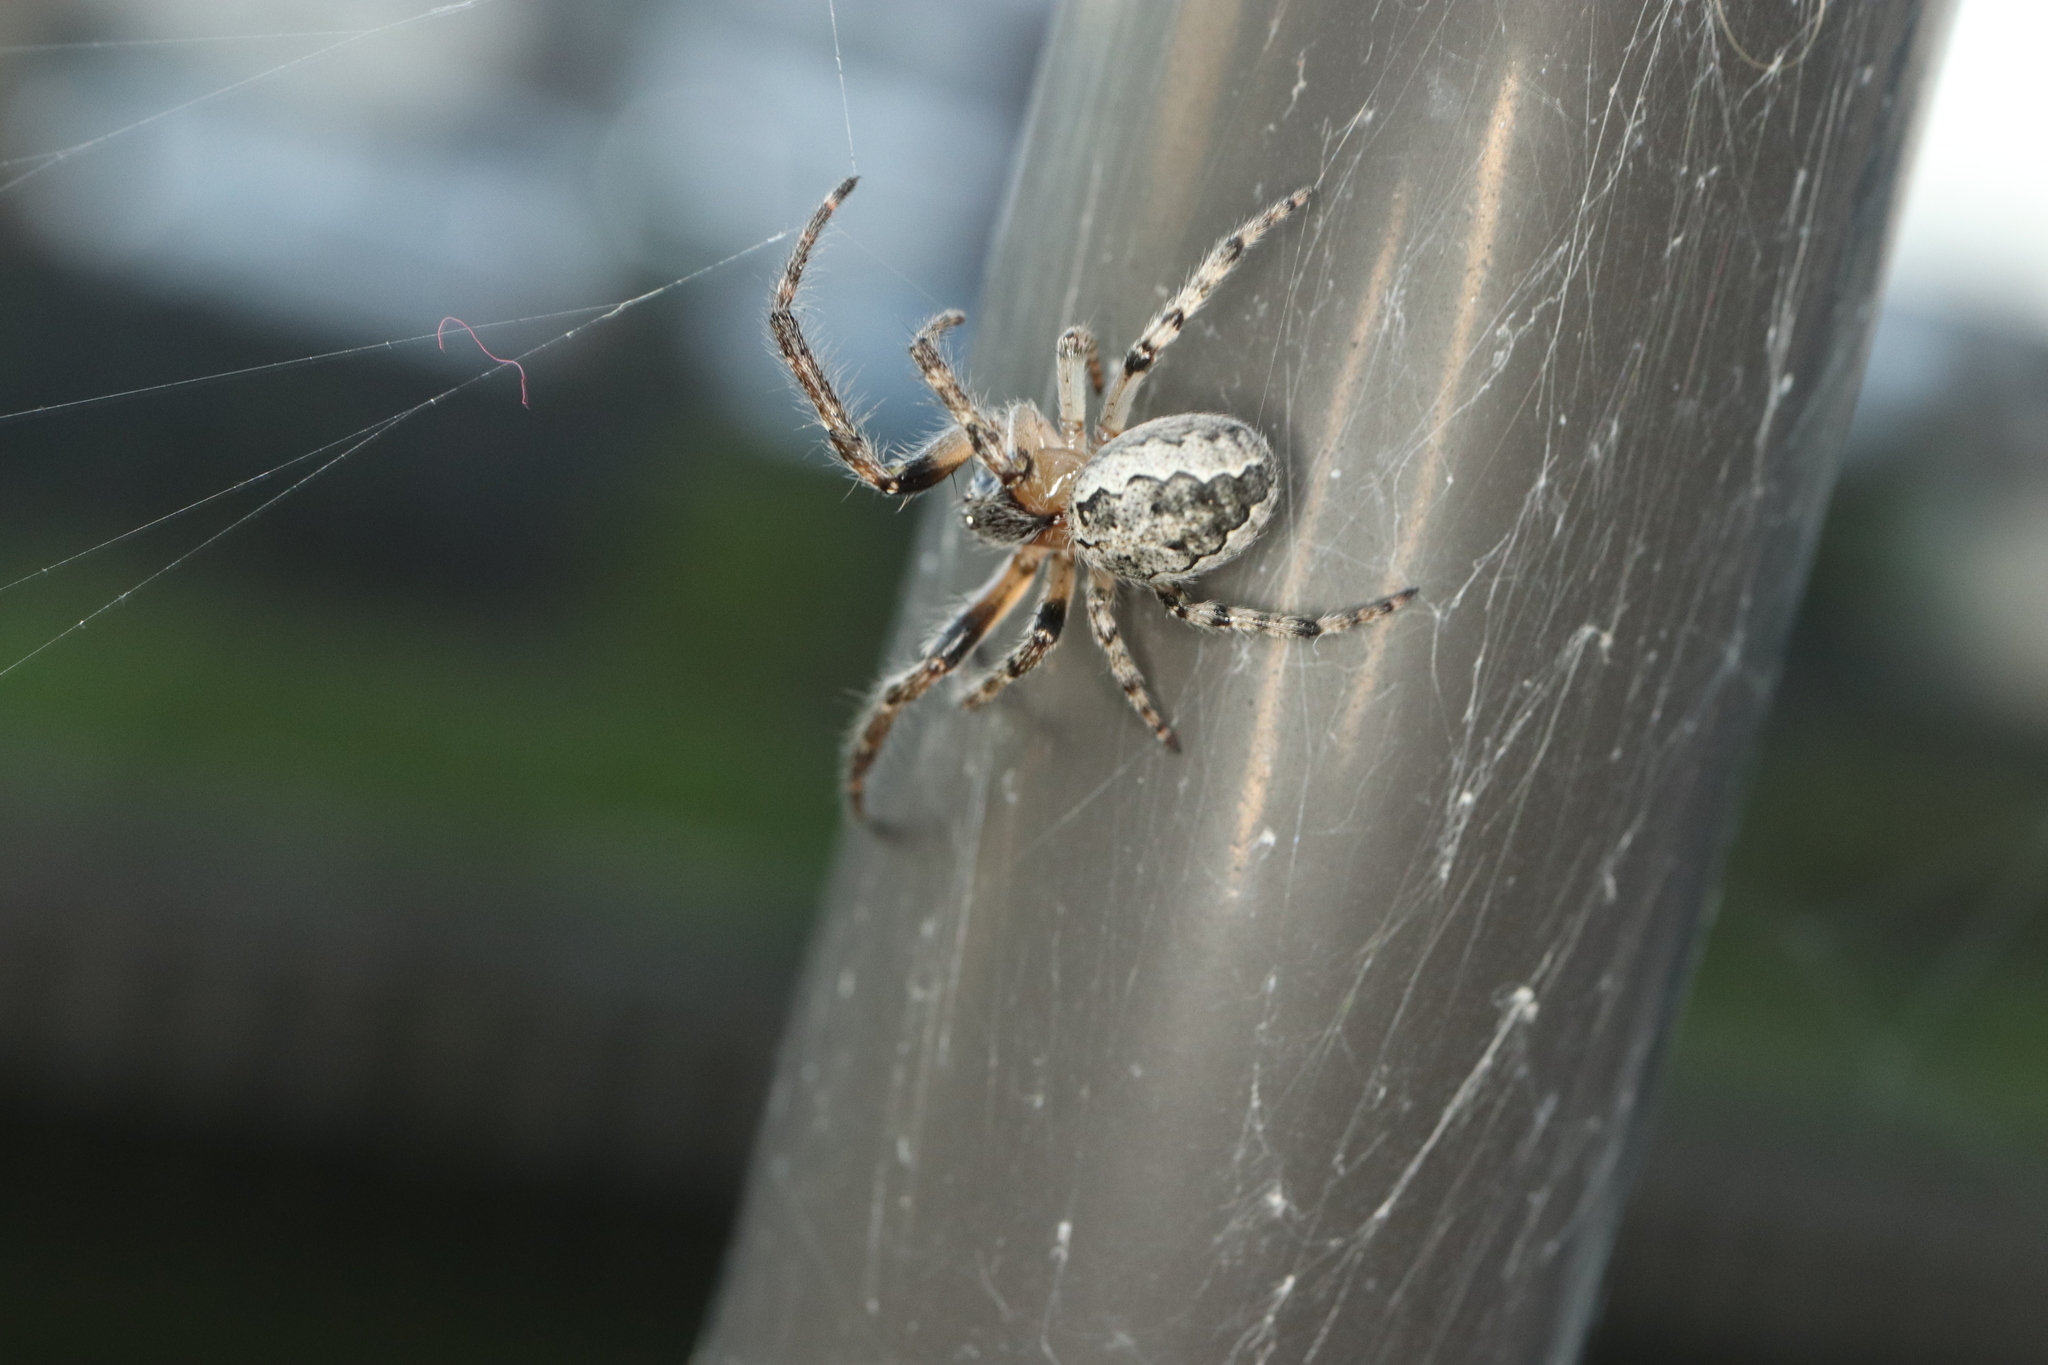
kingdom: Animalia
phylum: Arthropoda
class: Arachnida
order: Araneae
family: Araneidae
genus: Yaginumia
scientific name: Yaginumia sia
